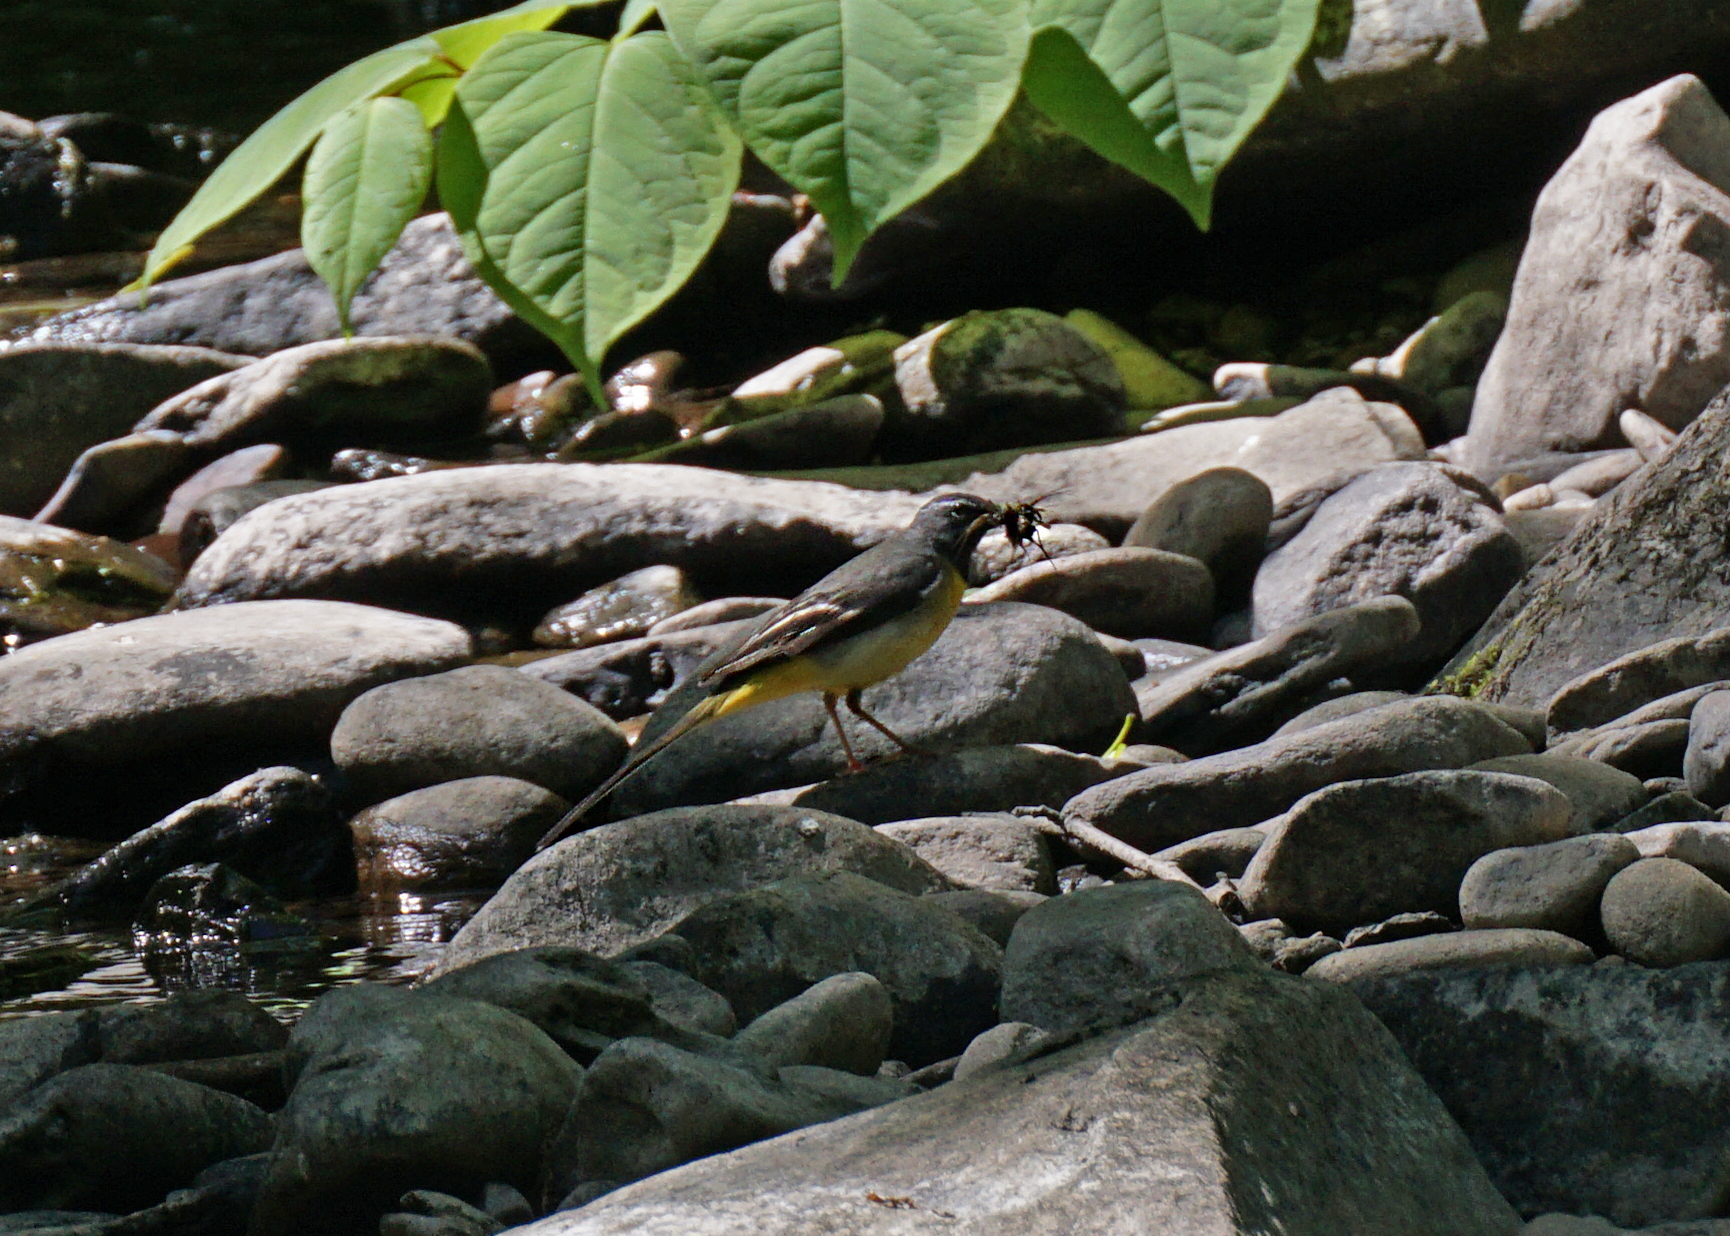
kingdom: Animalia
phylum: Chordata
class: Aves
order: Passeriformes
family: Motacillidae
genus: Motacilla
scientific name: Motacilla cinerea
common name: Grey wagtail
